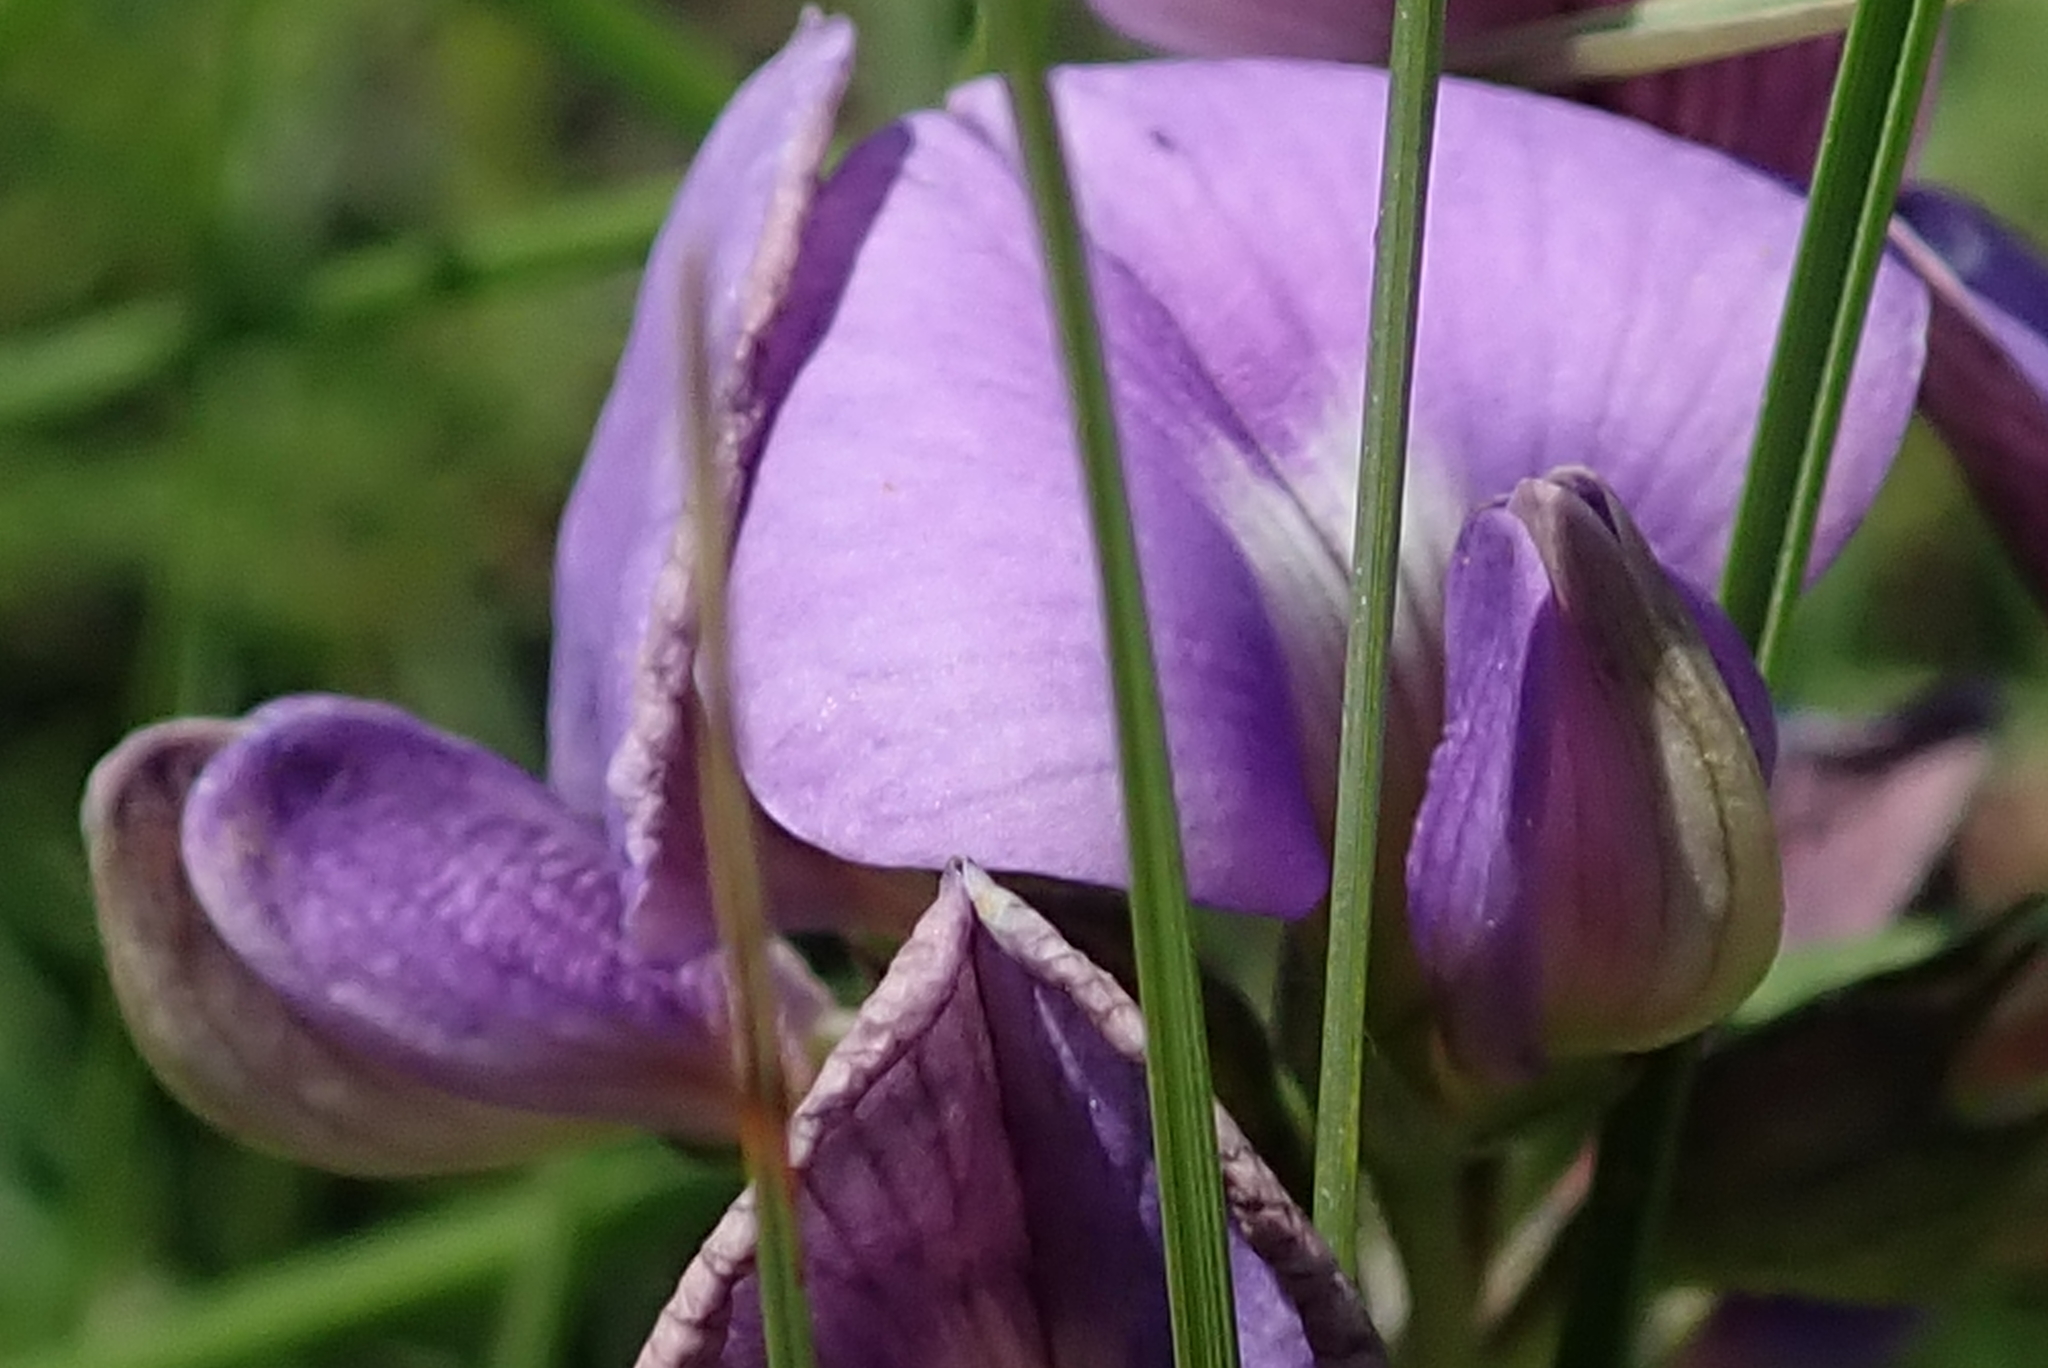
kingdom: Plantae
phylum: Tracheophyta
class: Magnoliopsida
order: Fabales
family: Fabaceae
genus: Lotononis
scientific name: Lotononis bachmanniana
